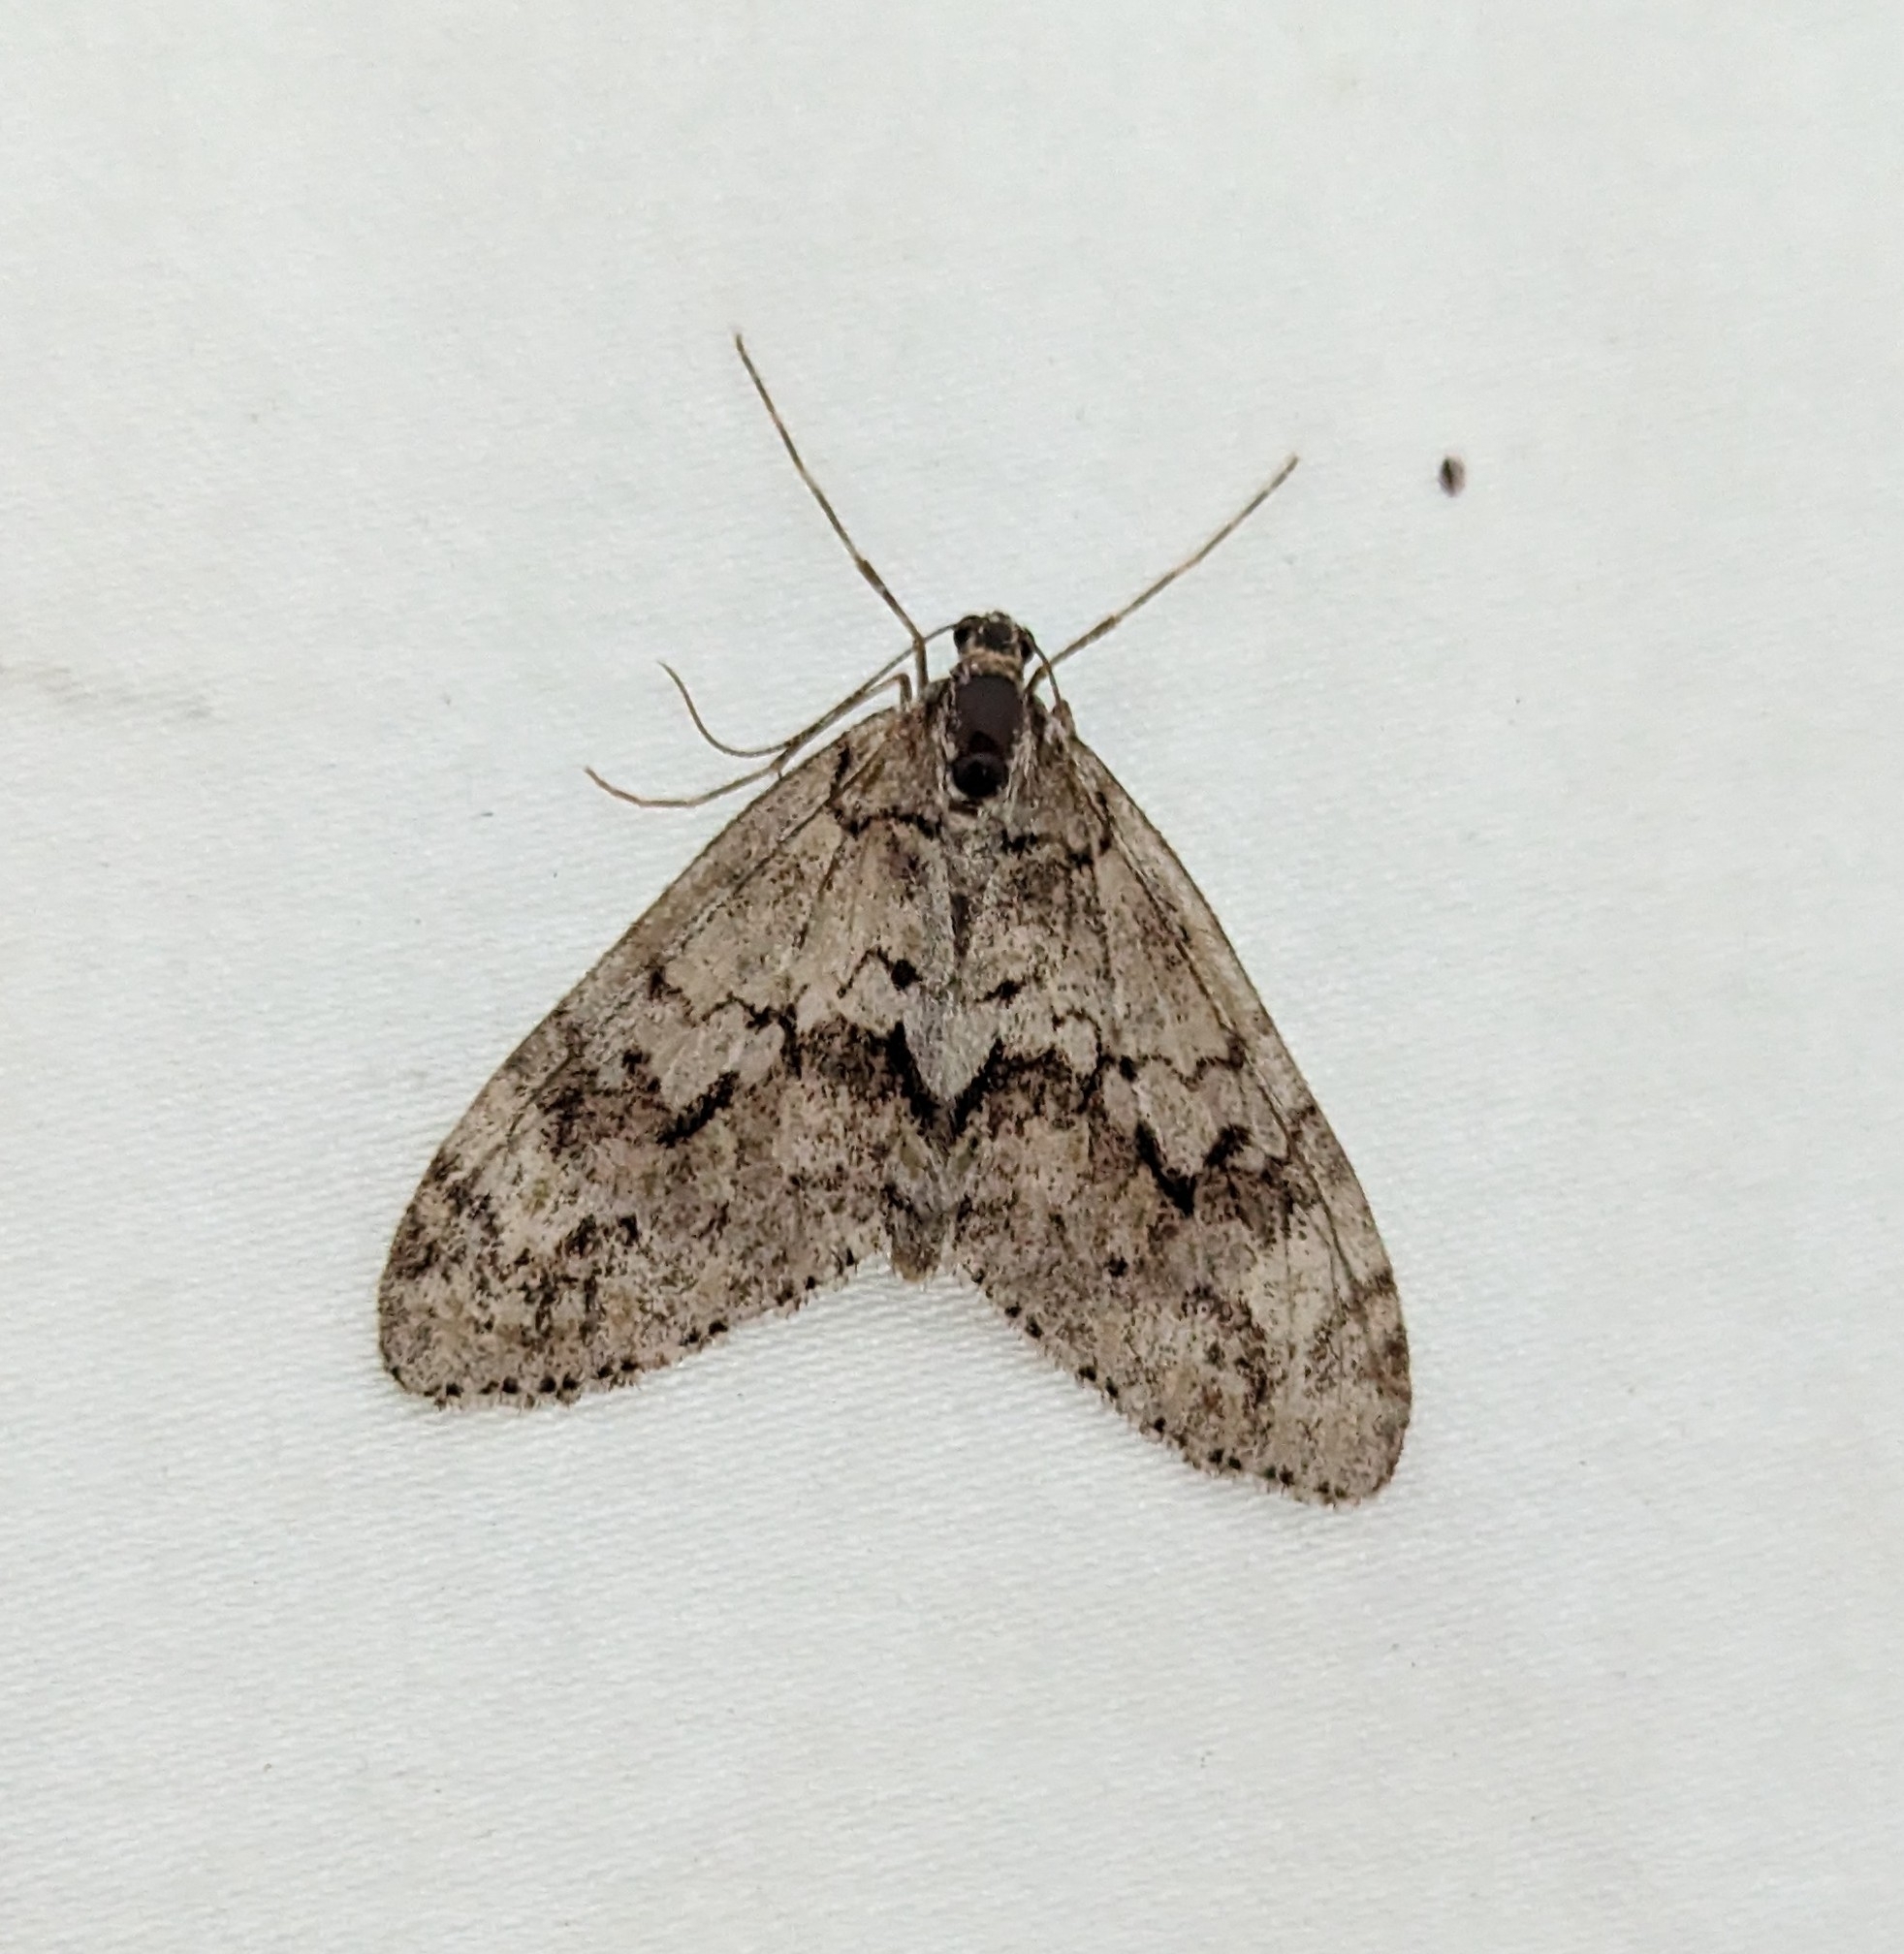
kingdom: Animalia
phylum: Arthropoda
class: Insecta
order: Lepidoptera
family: Geometridae
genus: Cladara
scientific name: Cladara limitaria
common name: Mottled gray carpet
